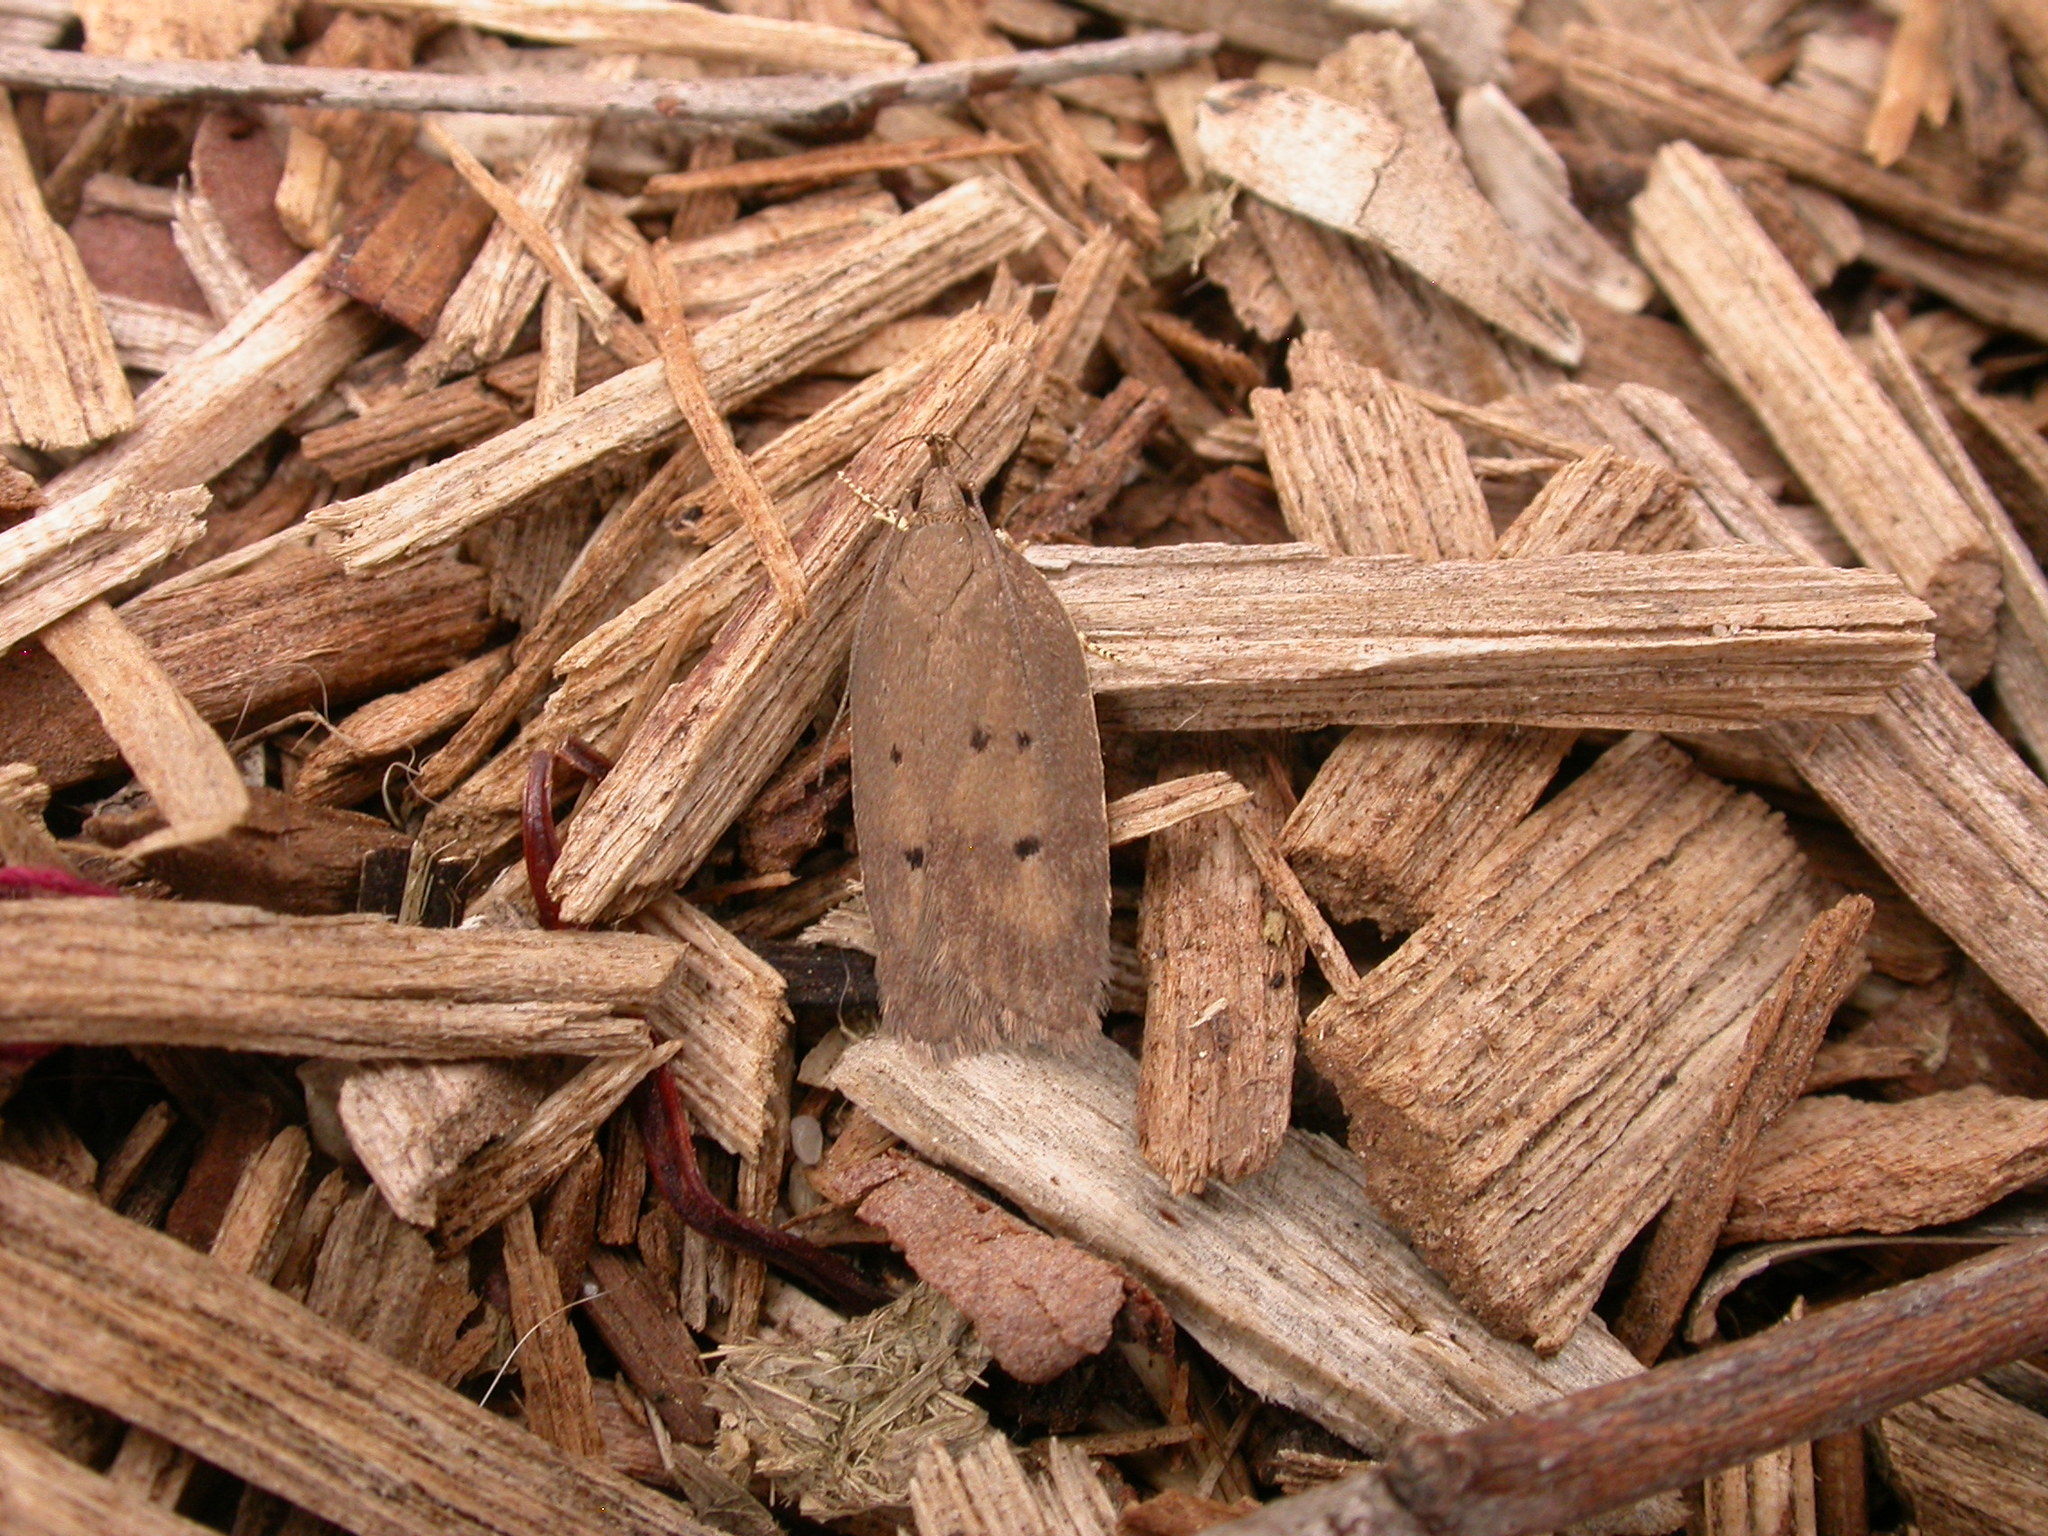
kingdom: Animalia
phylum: Arthropoda
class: Insecta
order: Lepidoptera
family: Depressariidae
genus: Doleromima
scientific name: Doleromima hypoxantha
